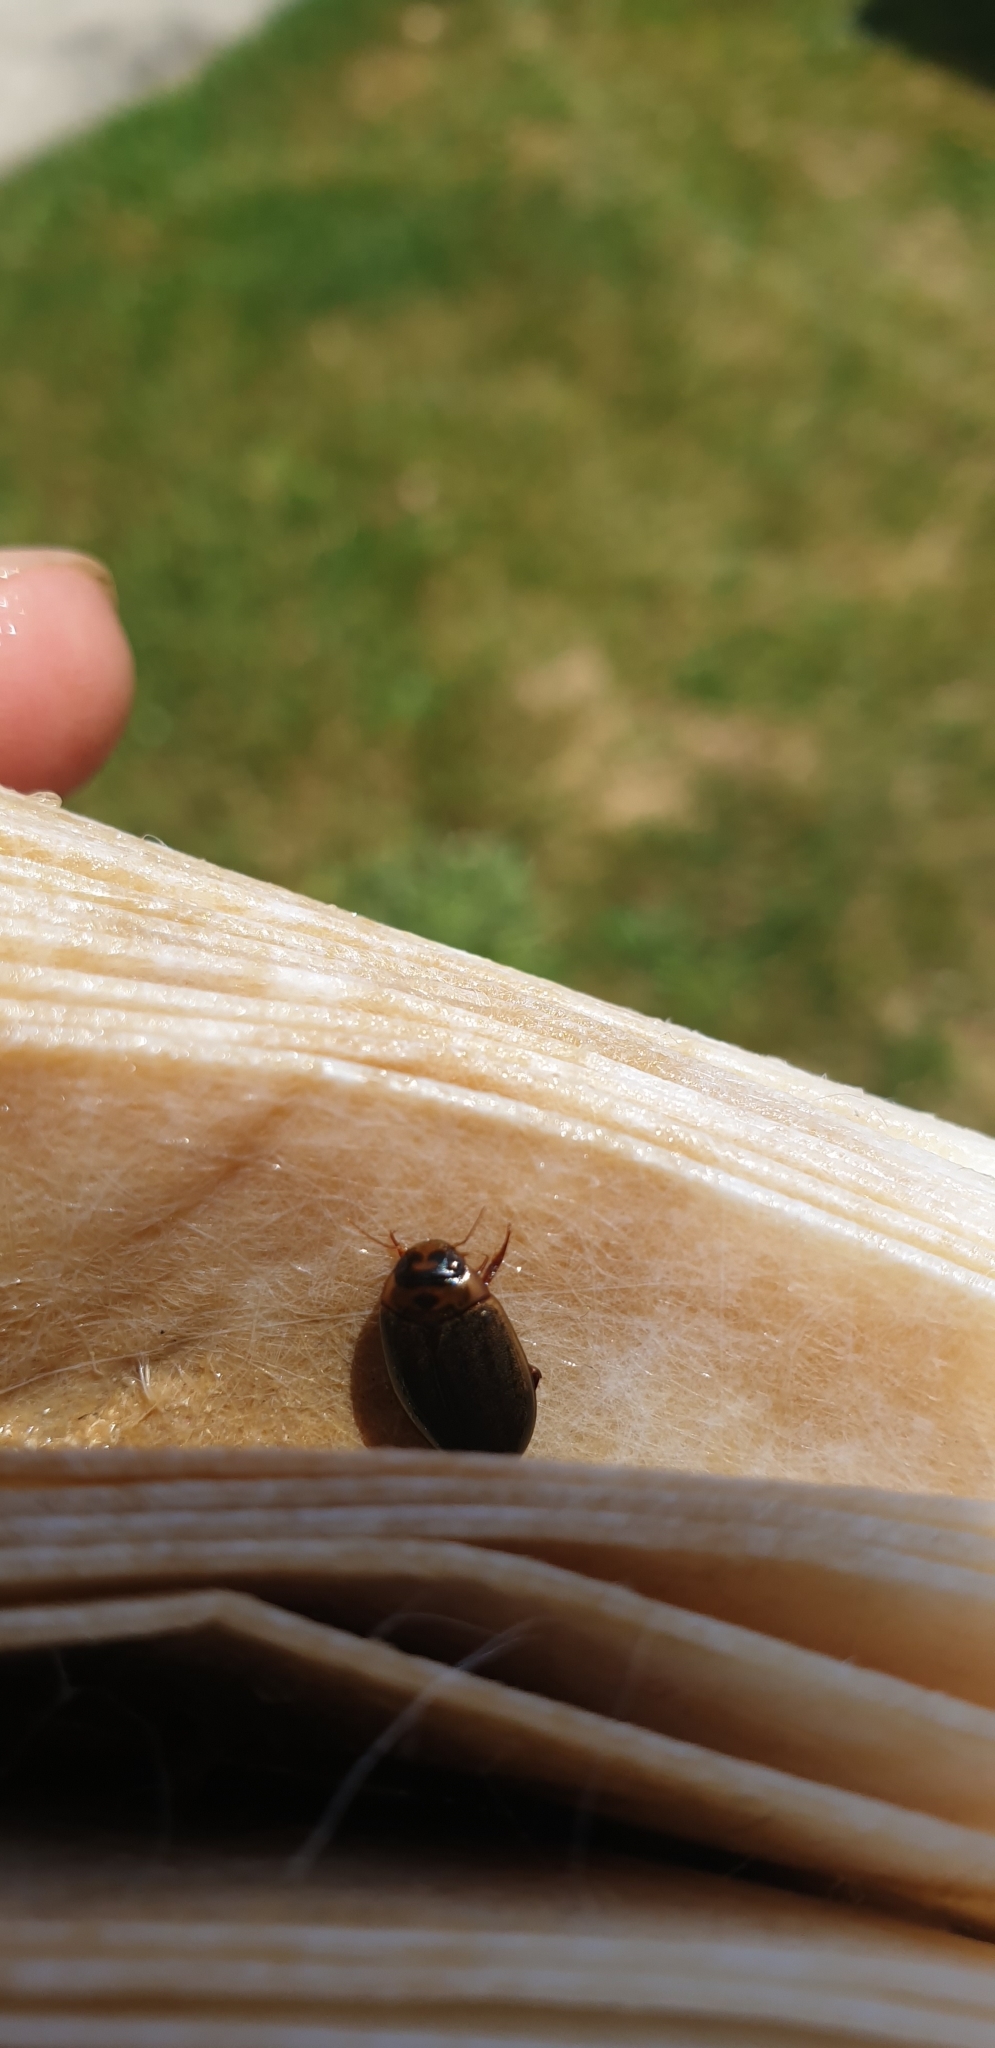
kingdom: Animalia
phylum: Arthropoda
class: Insecta
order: Coleoptera
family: Dytiscidae
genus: Rhantus
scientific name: Rhantus suturalis
